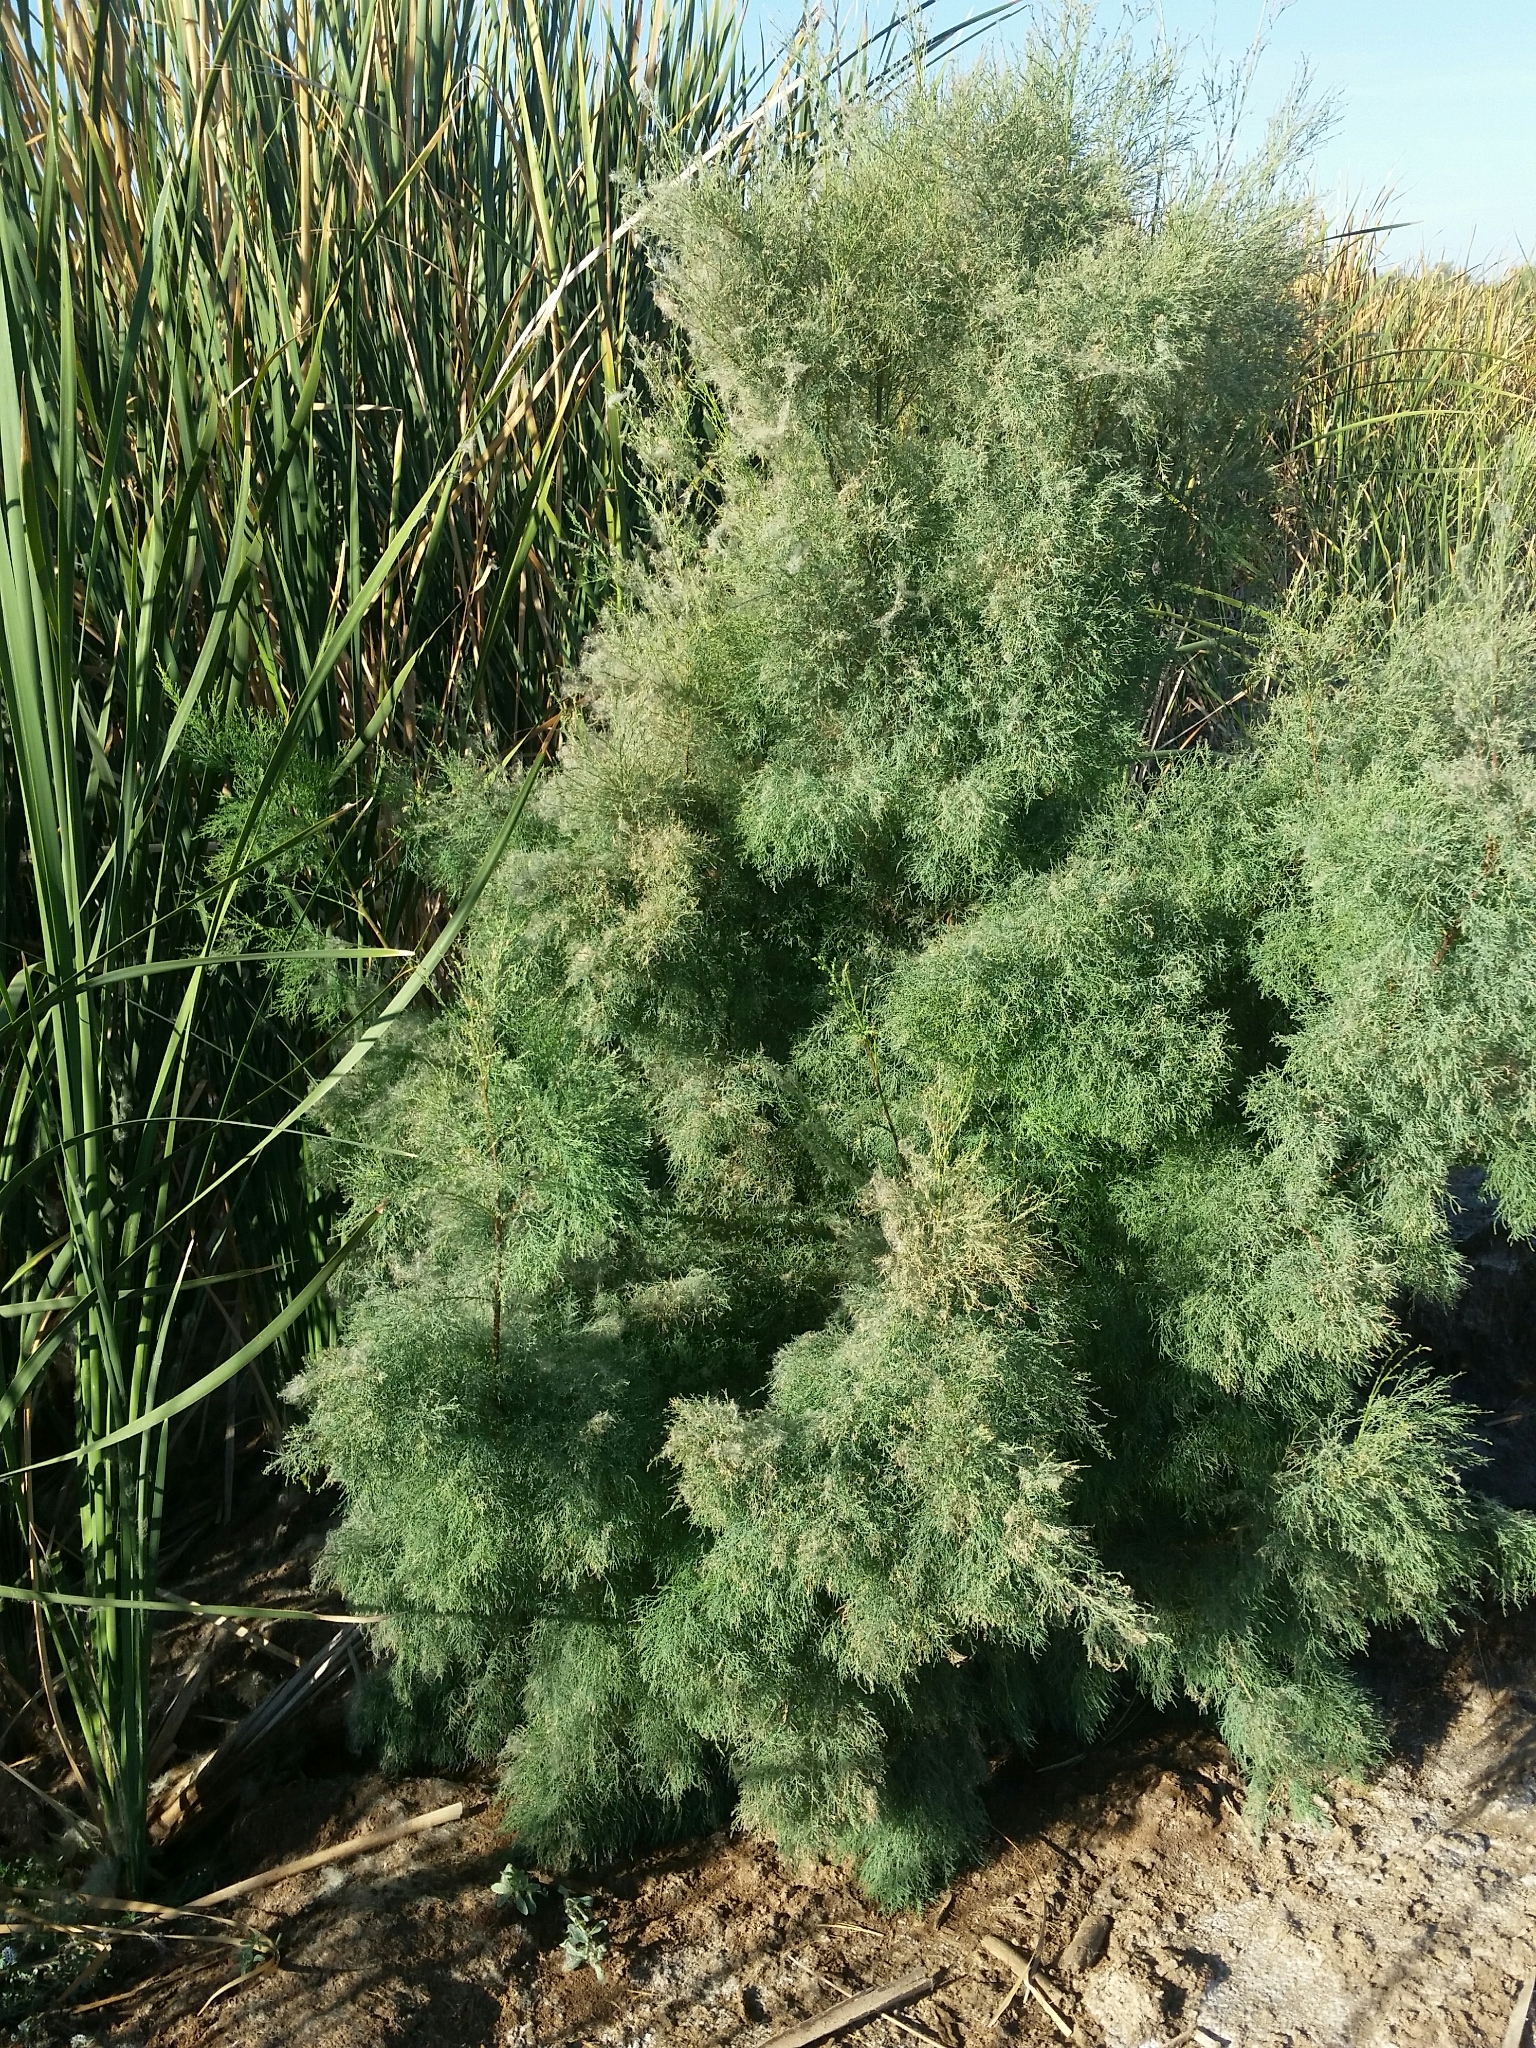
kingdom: Plantae
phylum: Tracheophyta
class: Magnoliopsida
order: Caryophyllales
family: Tamaricaceae
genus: Tamarix
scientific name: Tamarix
